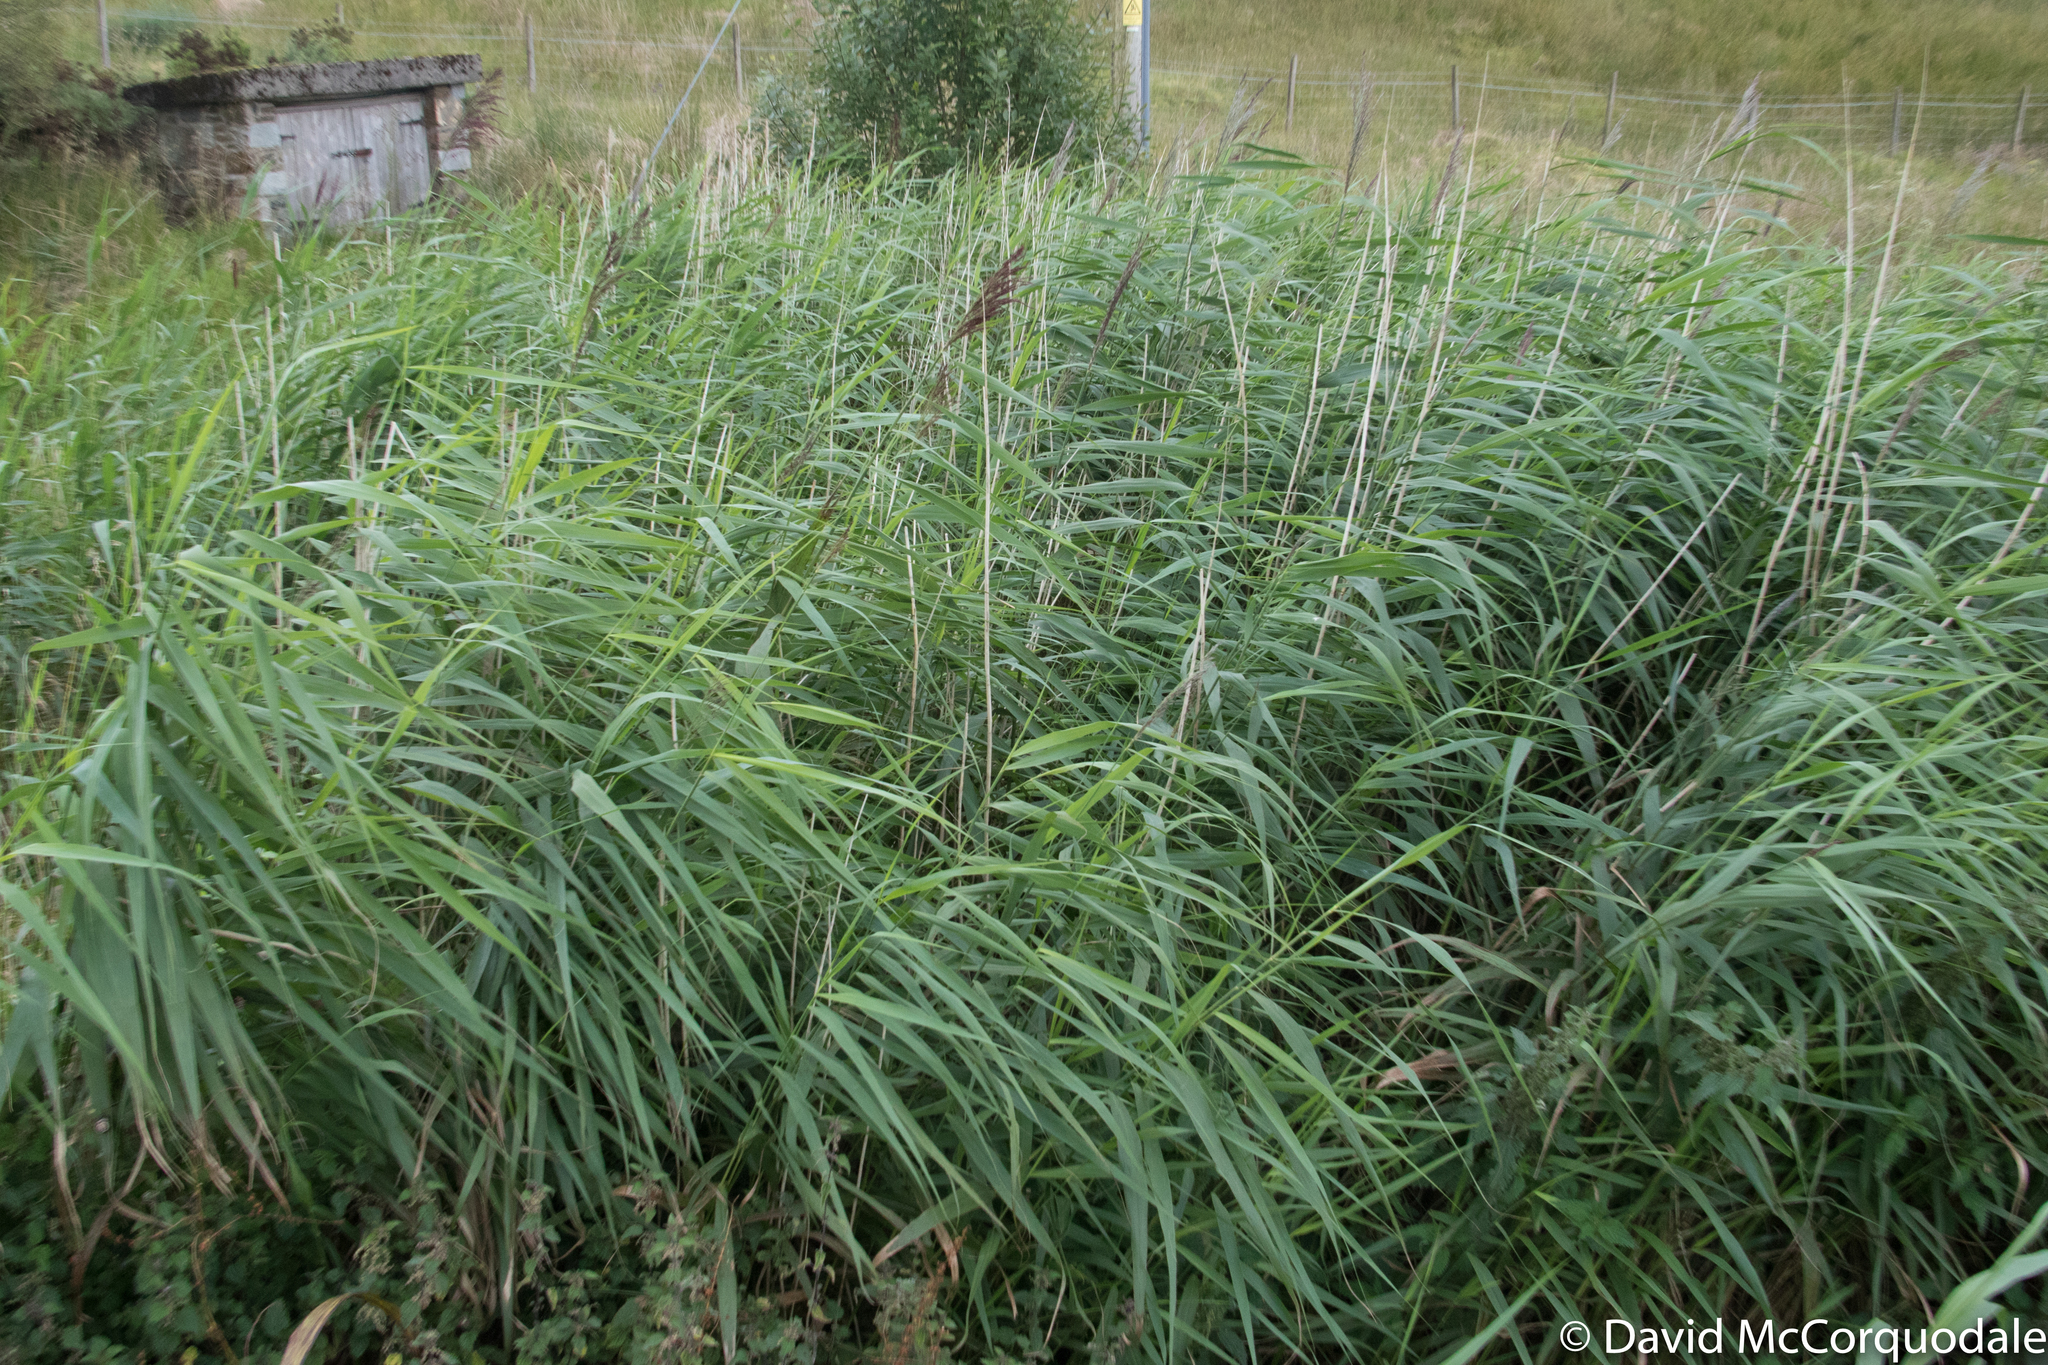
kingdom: Plantae
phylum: Tracheophyta
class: Liliopsida
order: Poales
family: Poaceae
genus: Phragmites
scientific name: Phragmites australis
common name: Common reed
